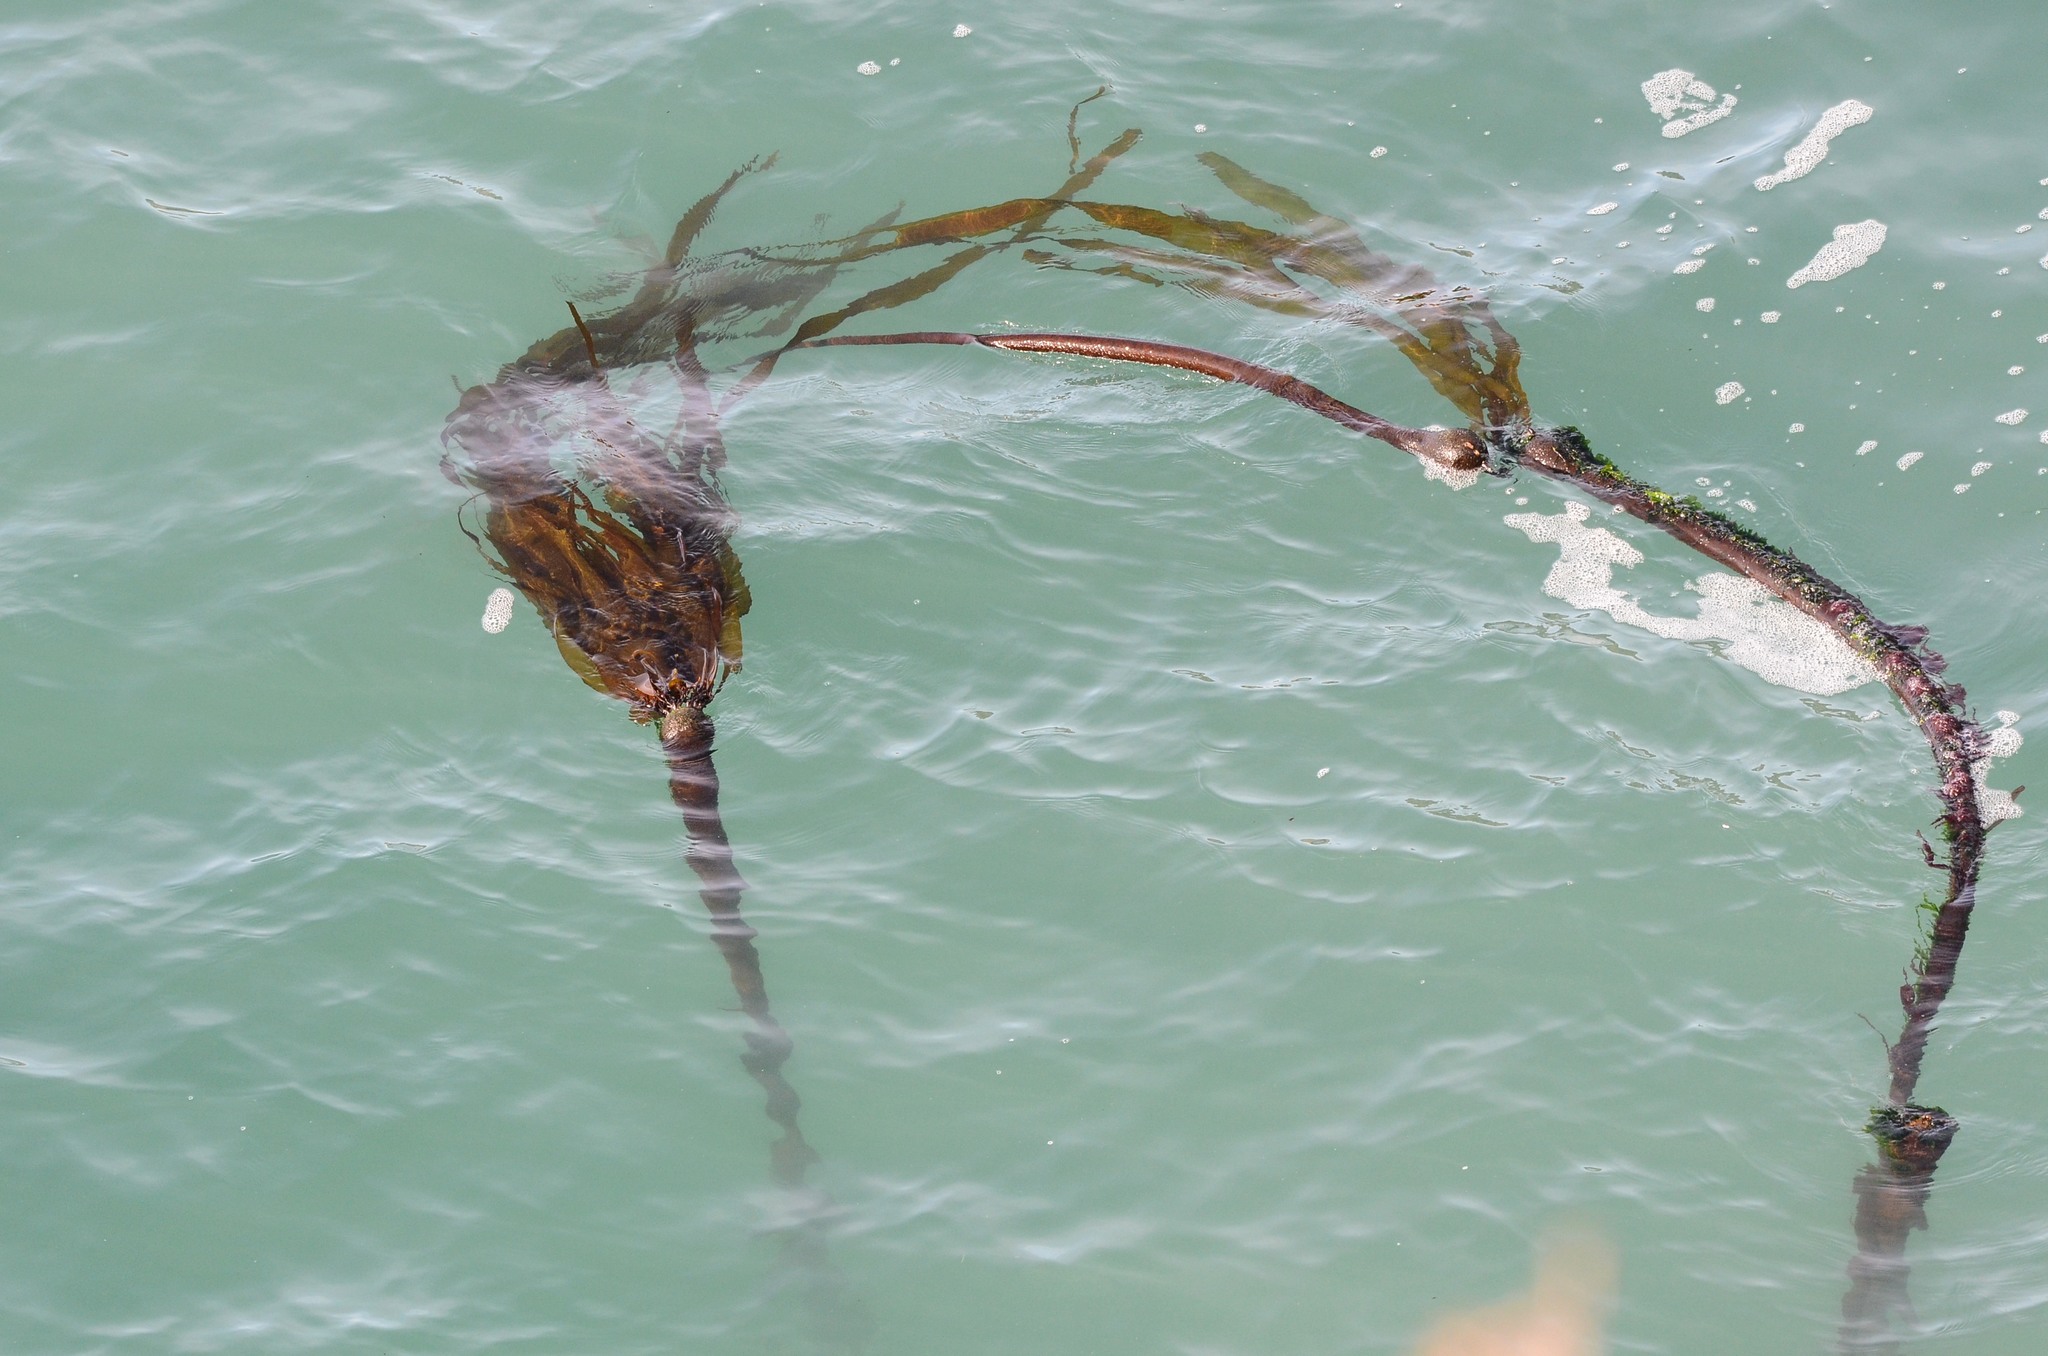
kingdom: Chromista
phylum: Ochrophyta
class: Phaeophyceae
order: Laminariales
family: Laminariaceae
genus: Nereocystis
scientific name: Nereocystis luetkeana
